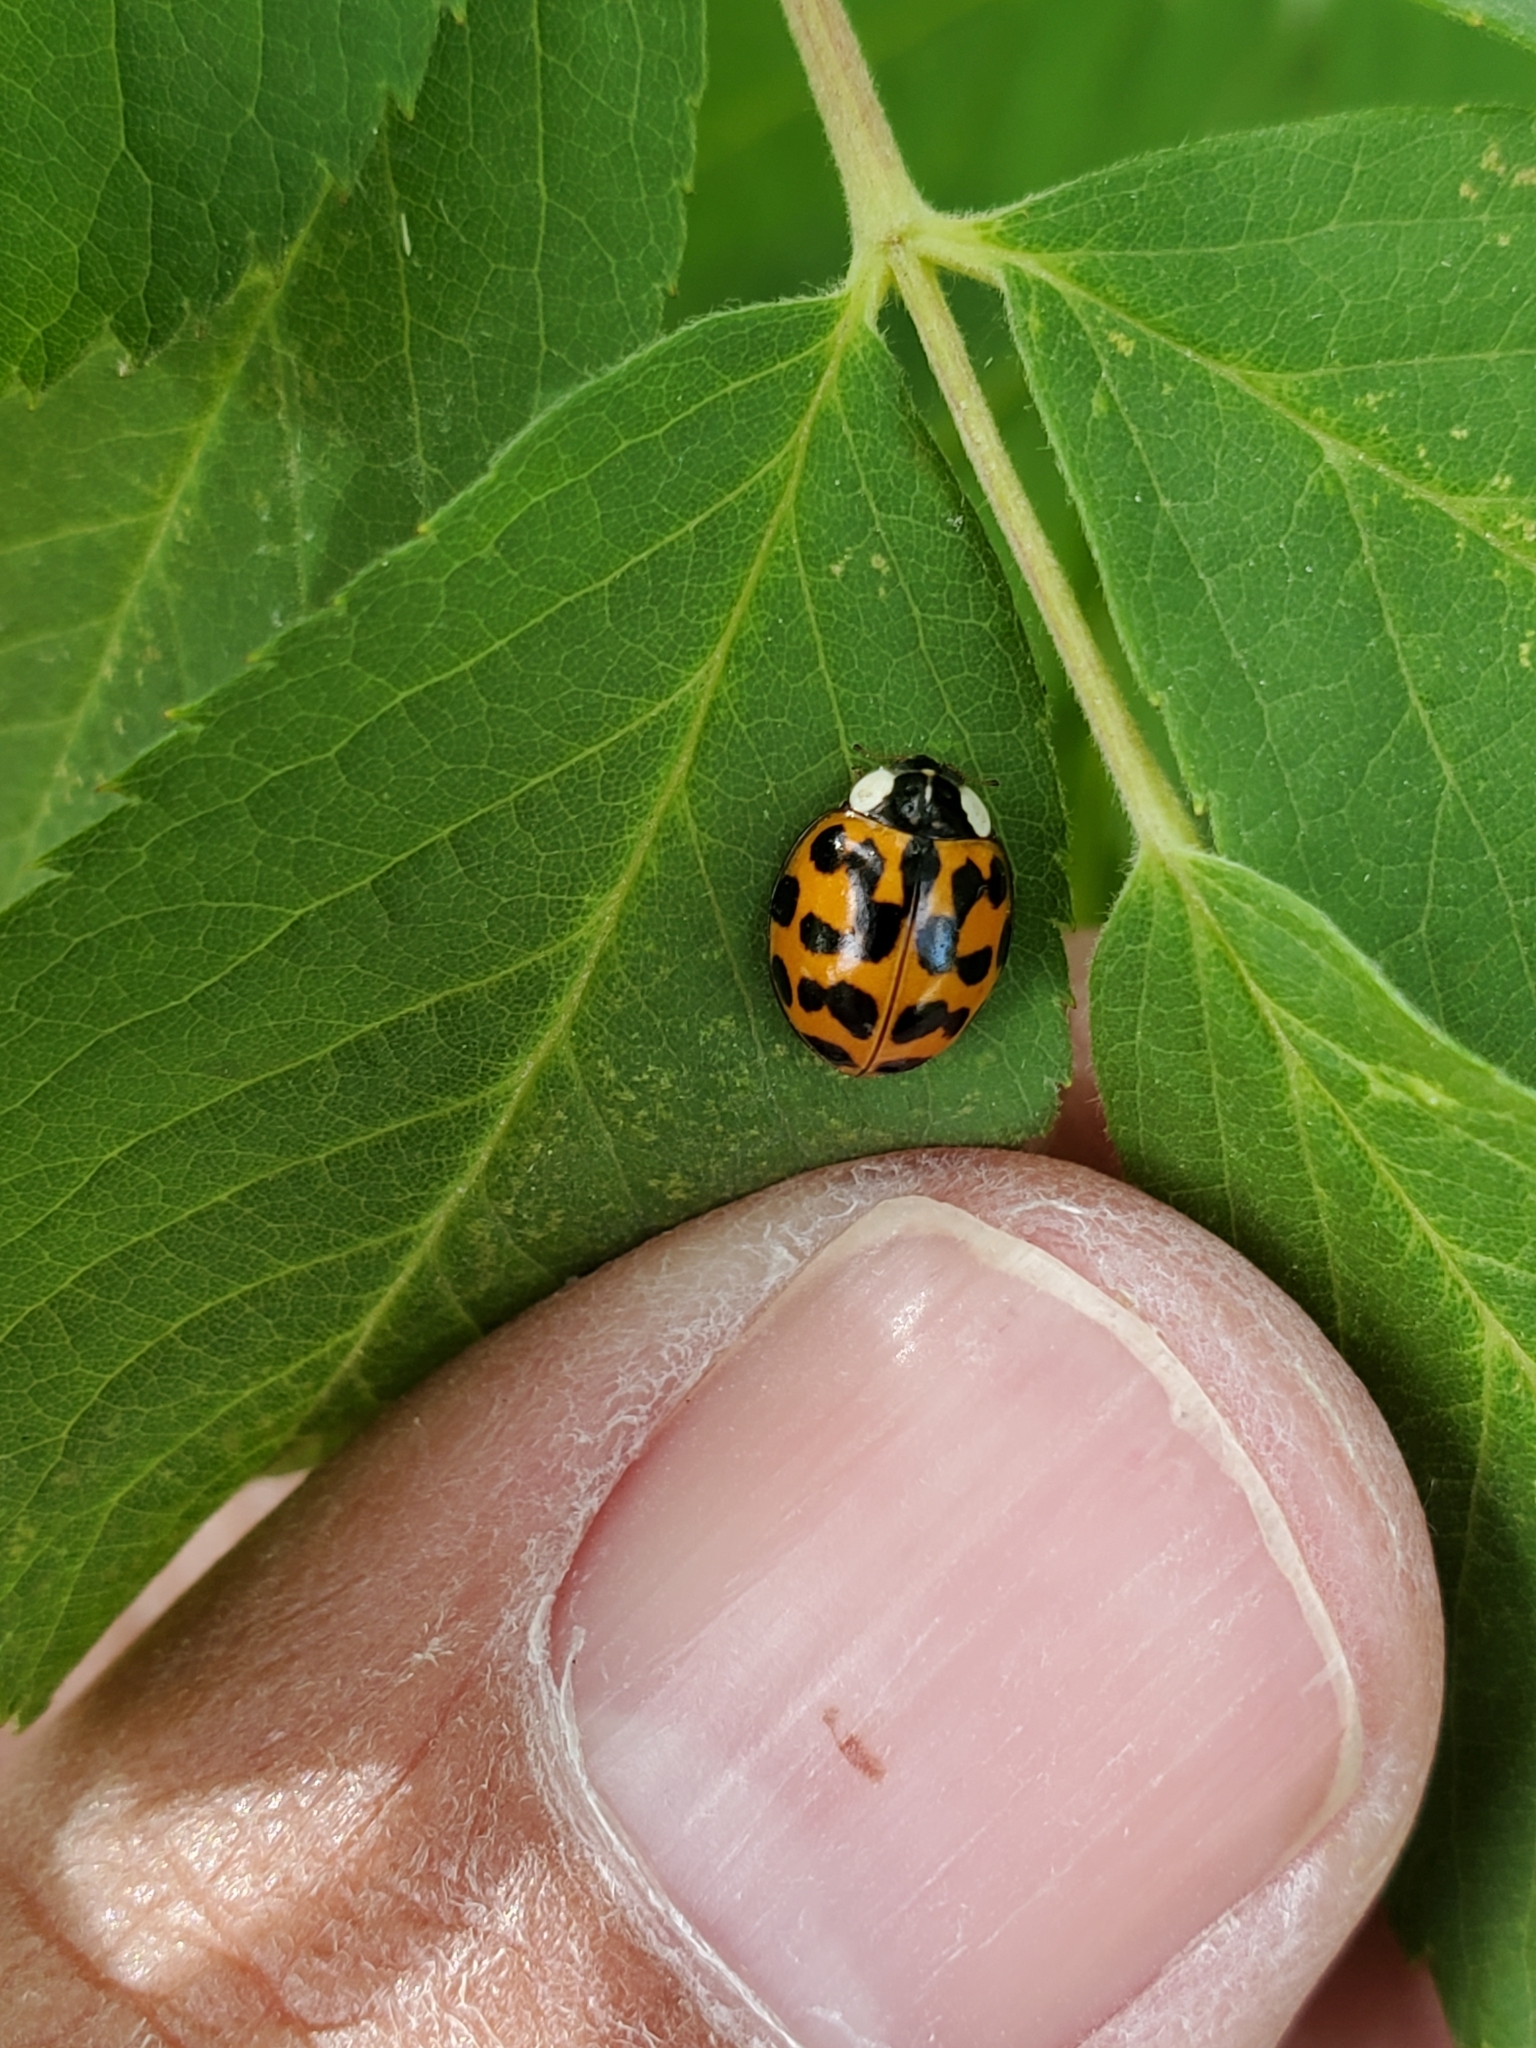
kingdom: Animalia
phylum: Arthropoda
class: Insecta
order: Coleoptera
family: Coccinellidae
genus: Harmonia
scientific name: Harmonia axyridis
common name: Harlequin ladybird
